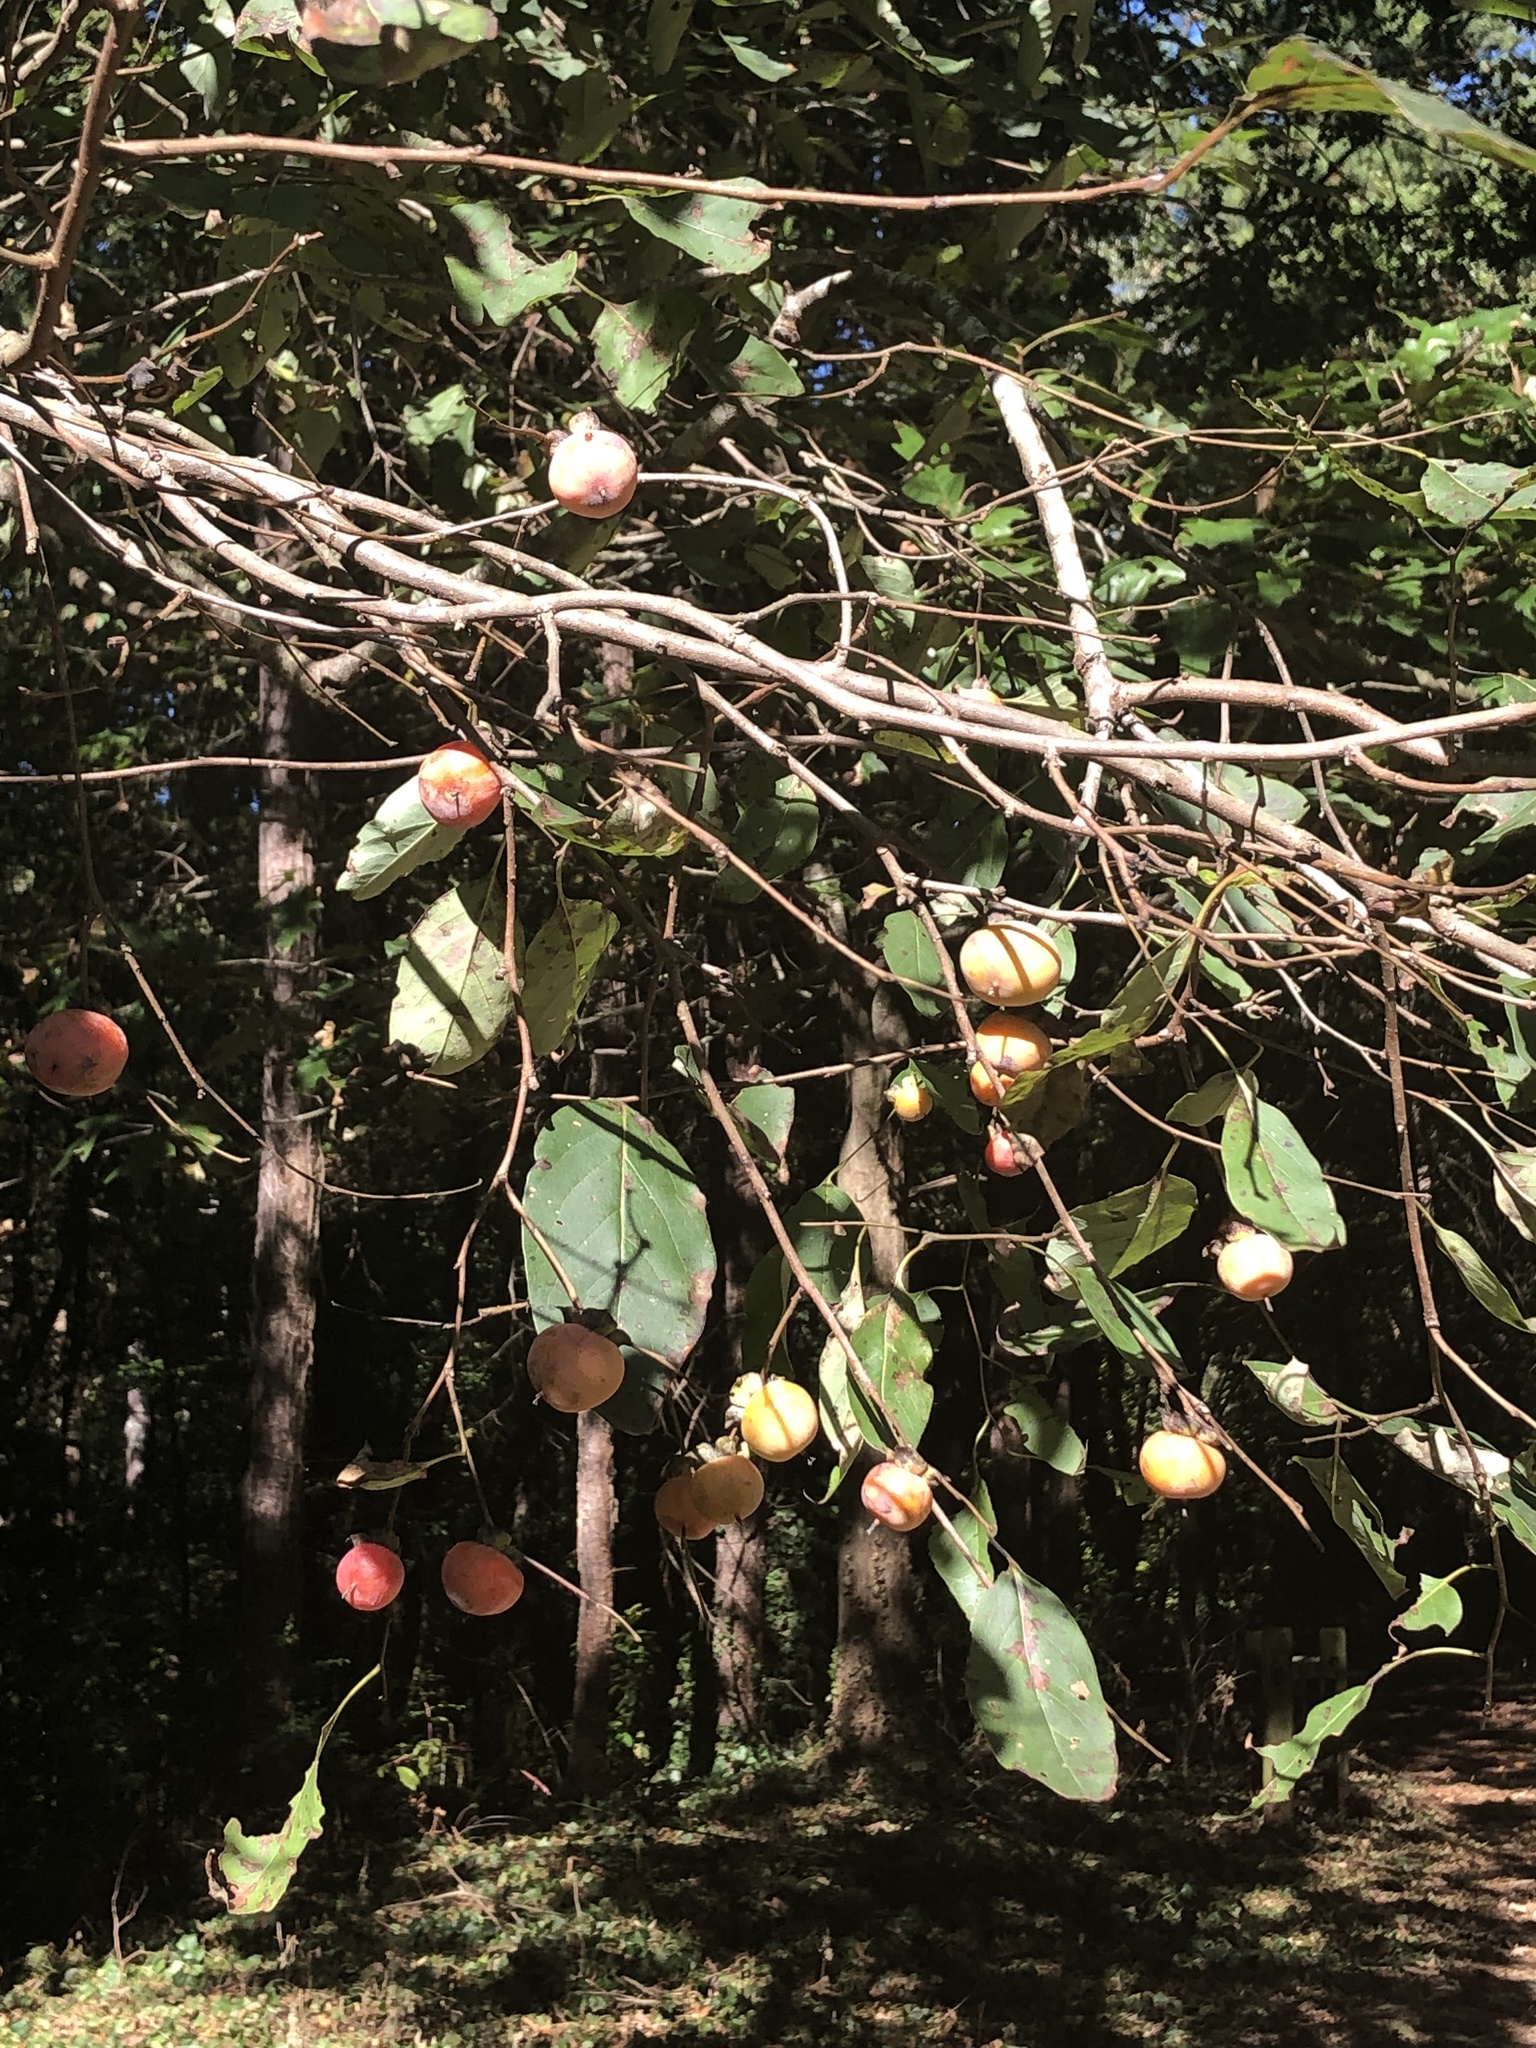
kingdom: Plantae
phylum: Tracheophyta
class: Magnoliopsida
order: Ericales
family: Ebenaceae
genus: Diospyros
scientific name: Diospyros virginiana
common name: Persimmon
